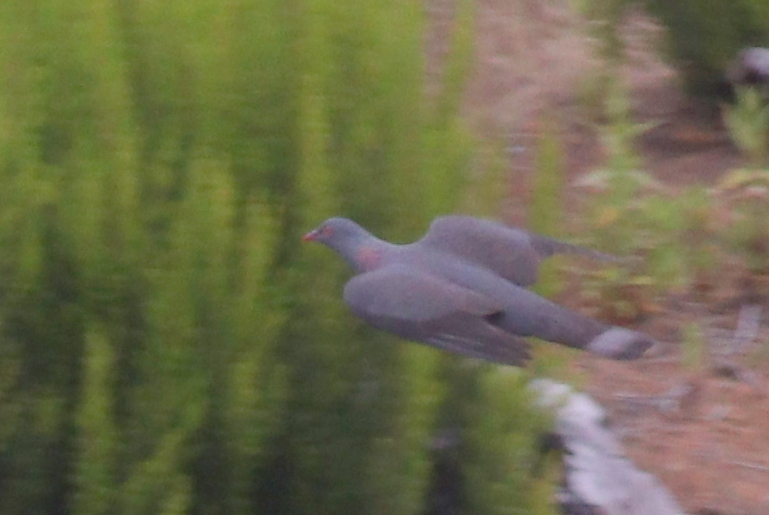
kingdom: Animalia
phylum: Chordata
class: Aves
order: Columbiformes
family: Columbidae
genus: Columba
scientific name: Columba bollii
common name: Bolle's pigeon
